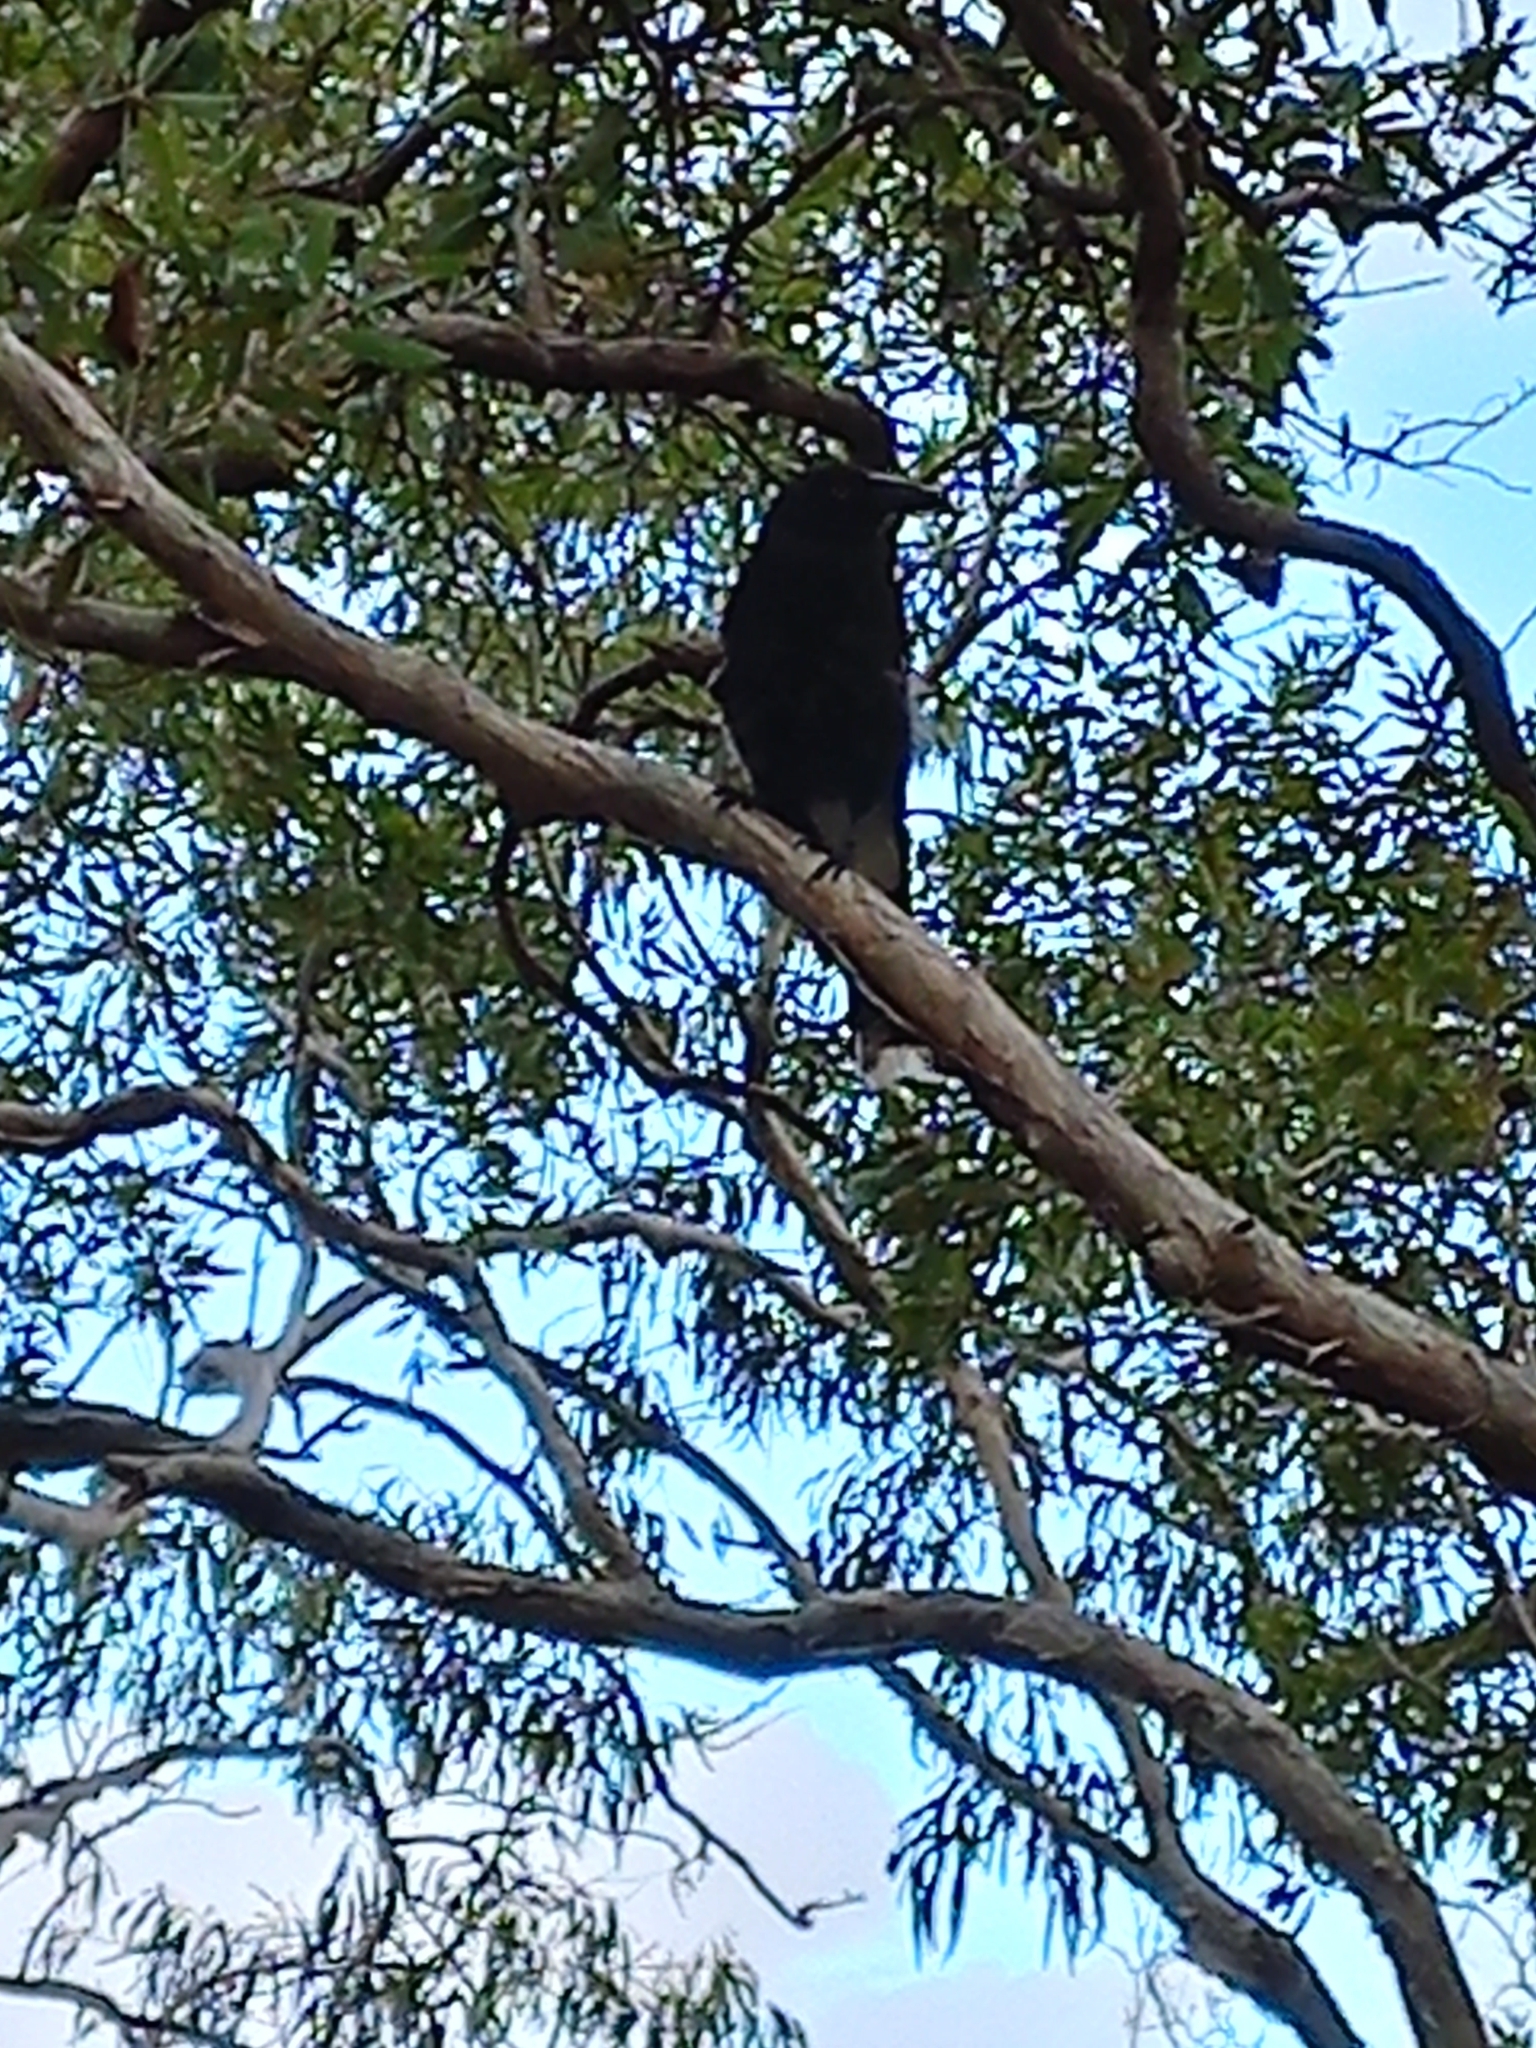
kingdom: Animalia
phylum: Chordata
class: Aves
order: Passeriformes
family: Cracticidae
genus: Strepera
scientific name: Strepera graculina
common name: Pied currawong
